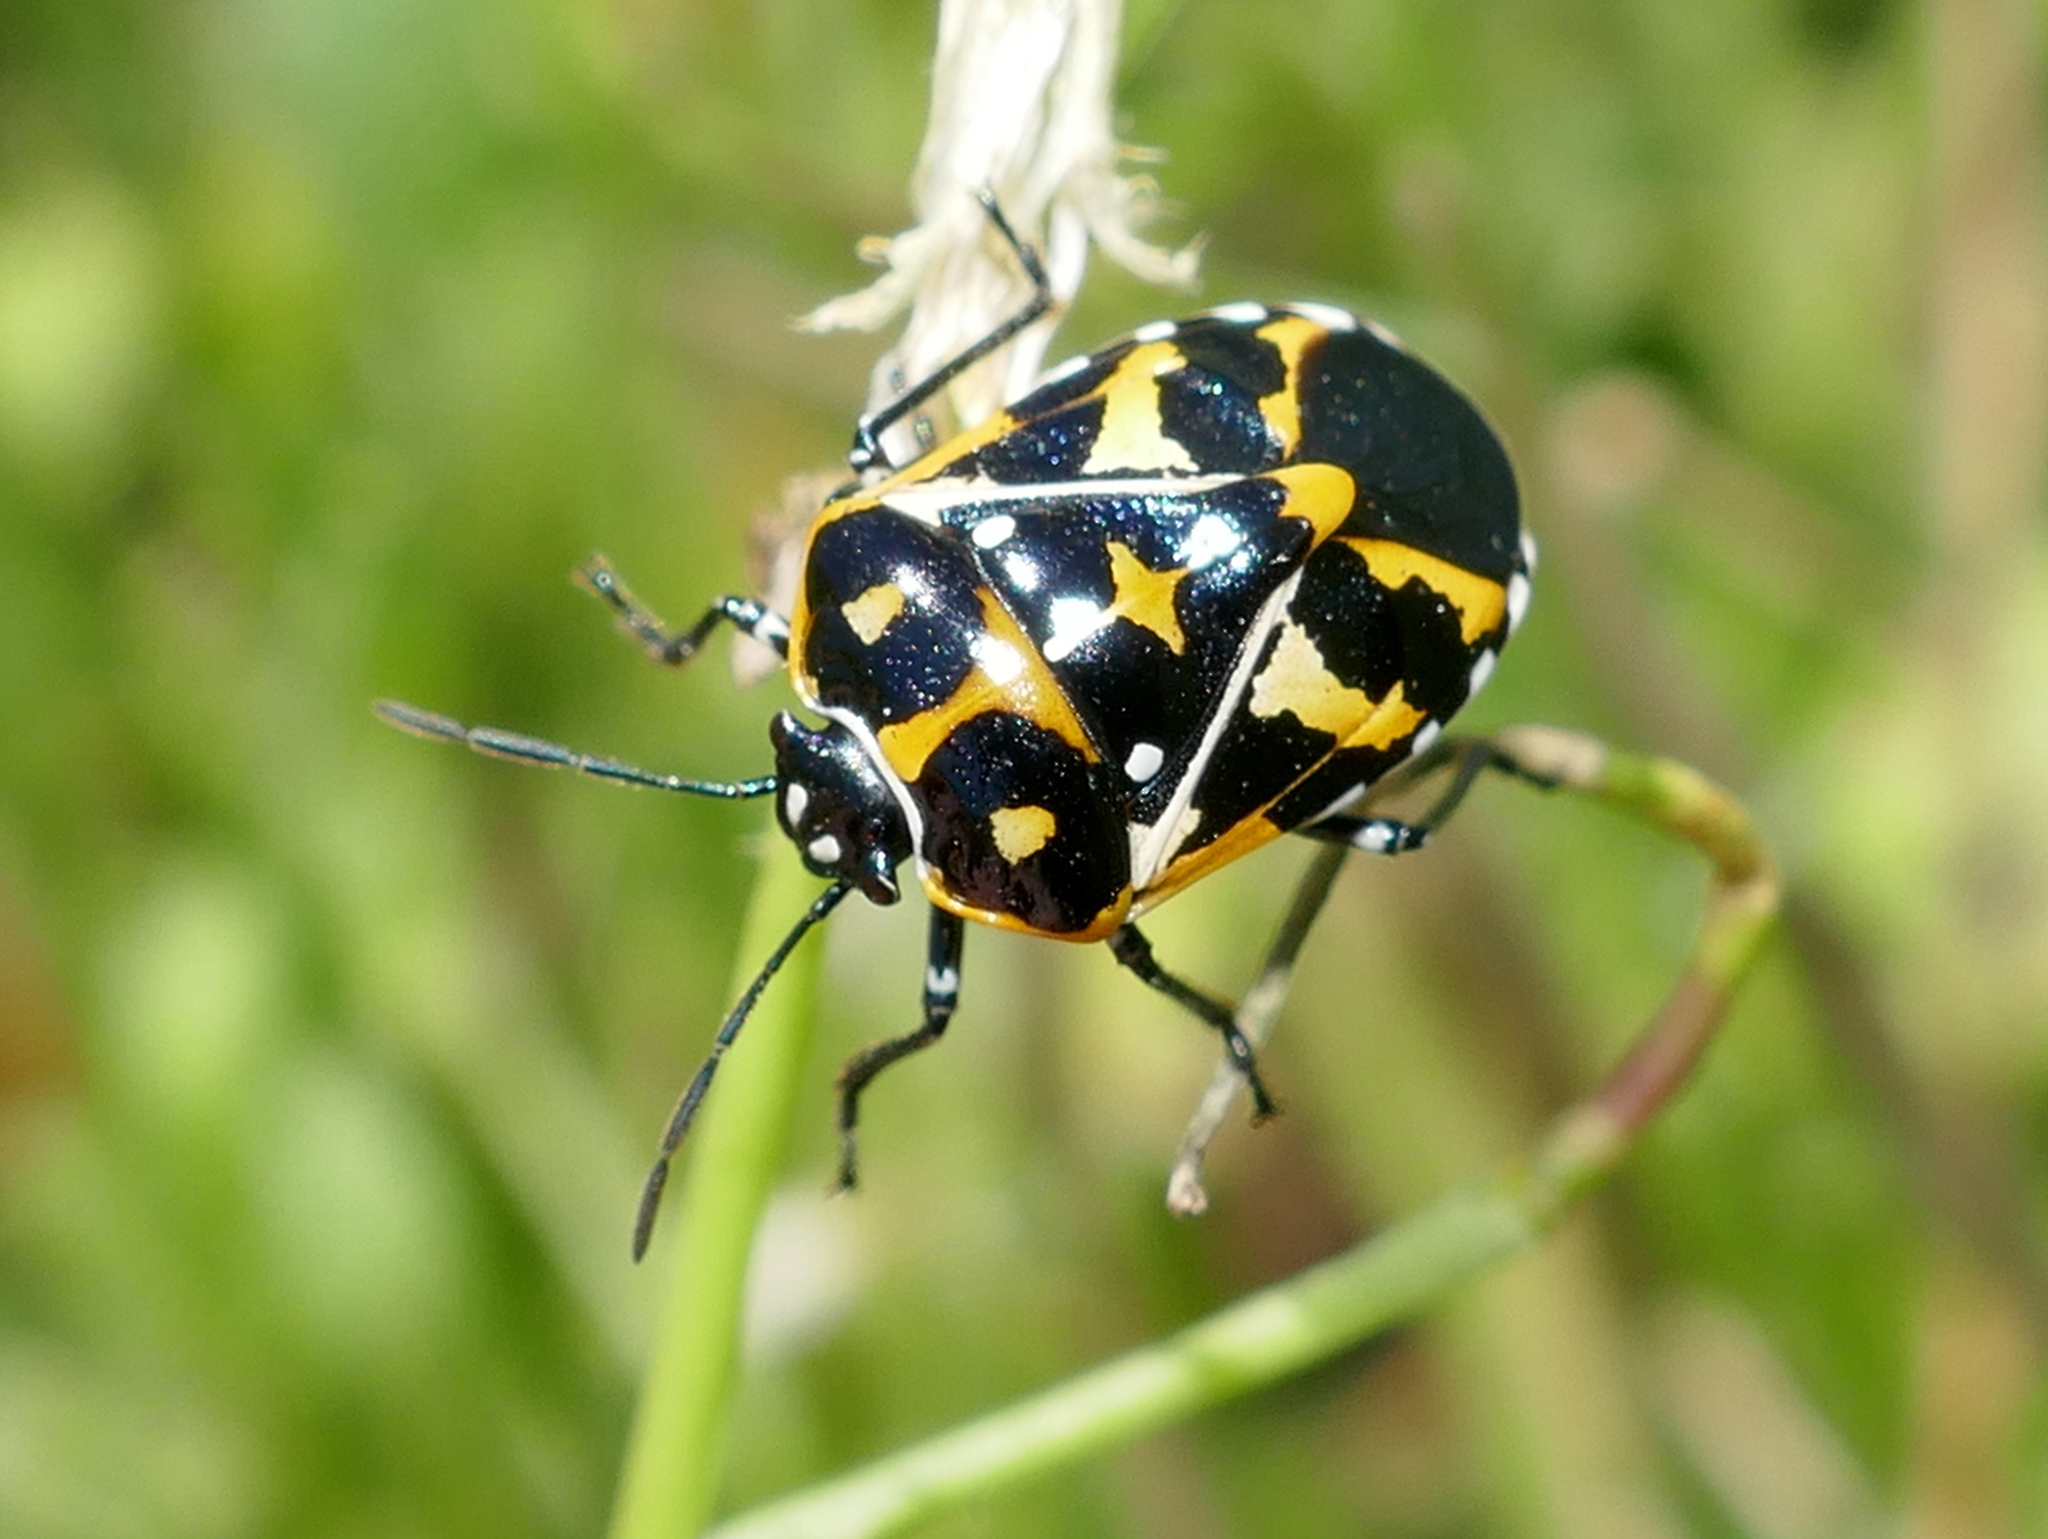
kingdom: Animalia
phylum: Arthropoda
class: Insecta
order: Hemiptera
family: Pentatomidae
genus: Murgantia
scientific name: Murgantia histrionica
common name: Harlequin bug
